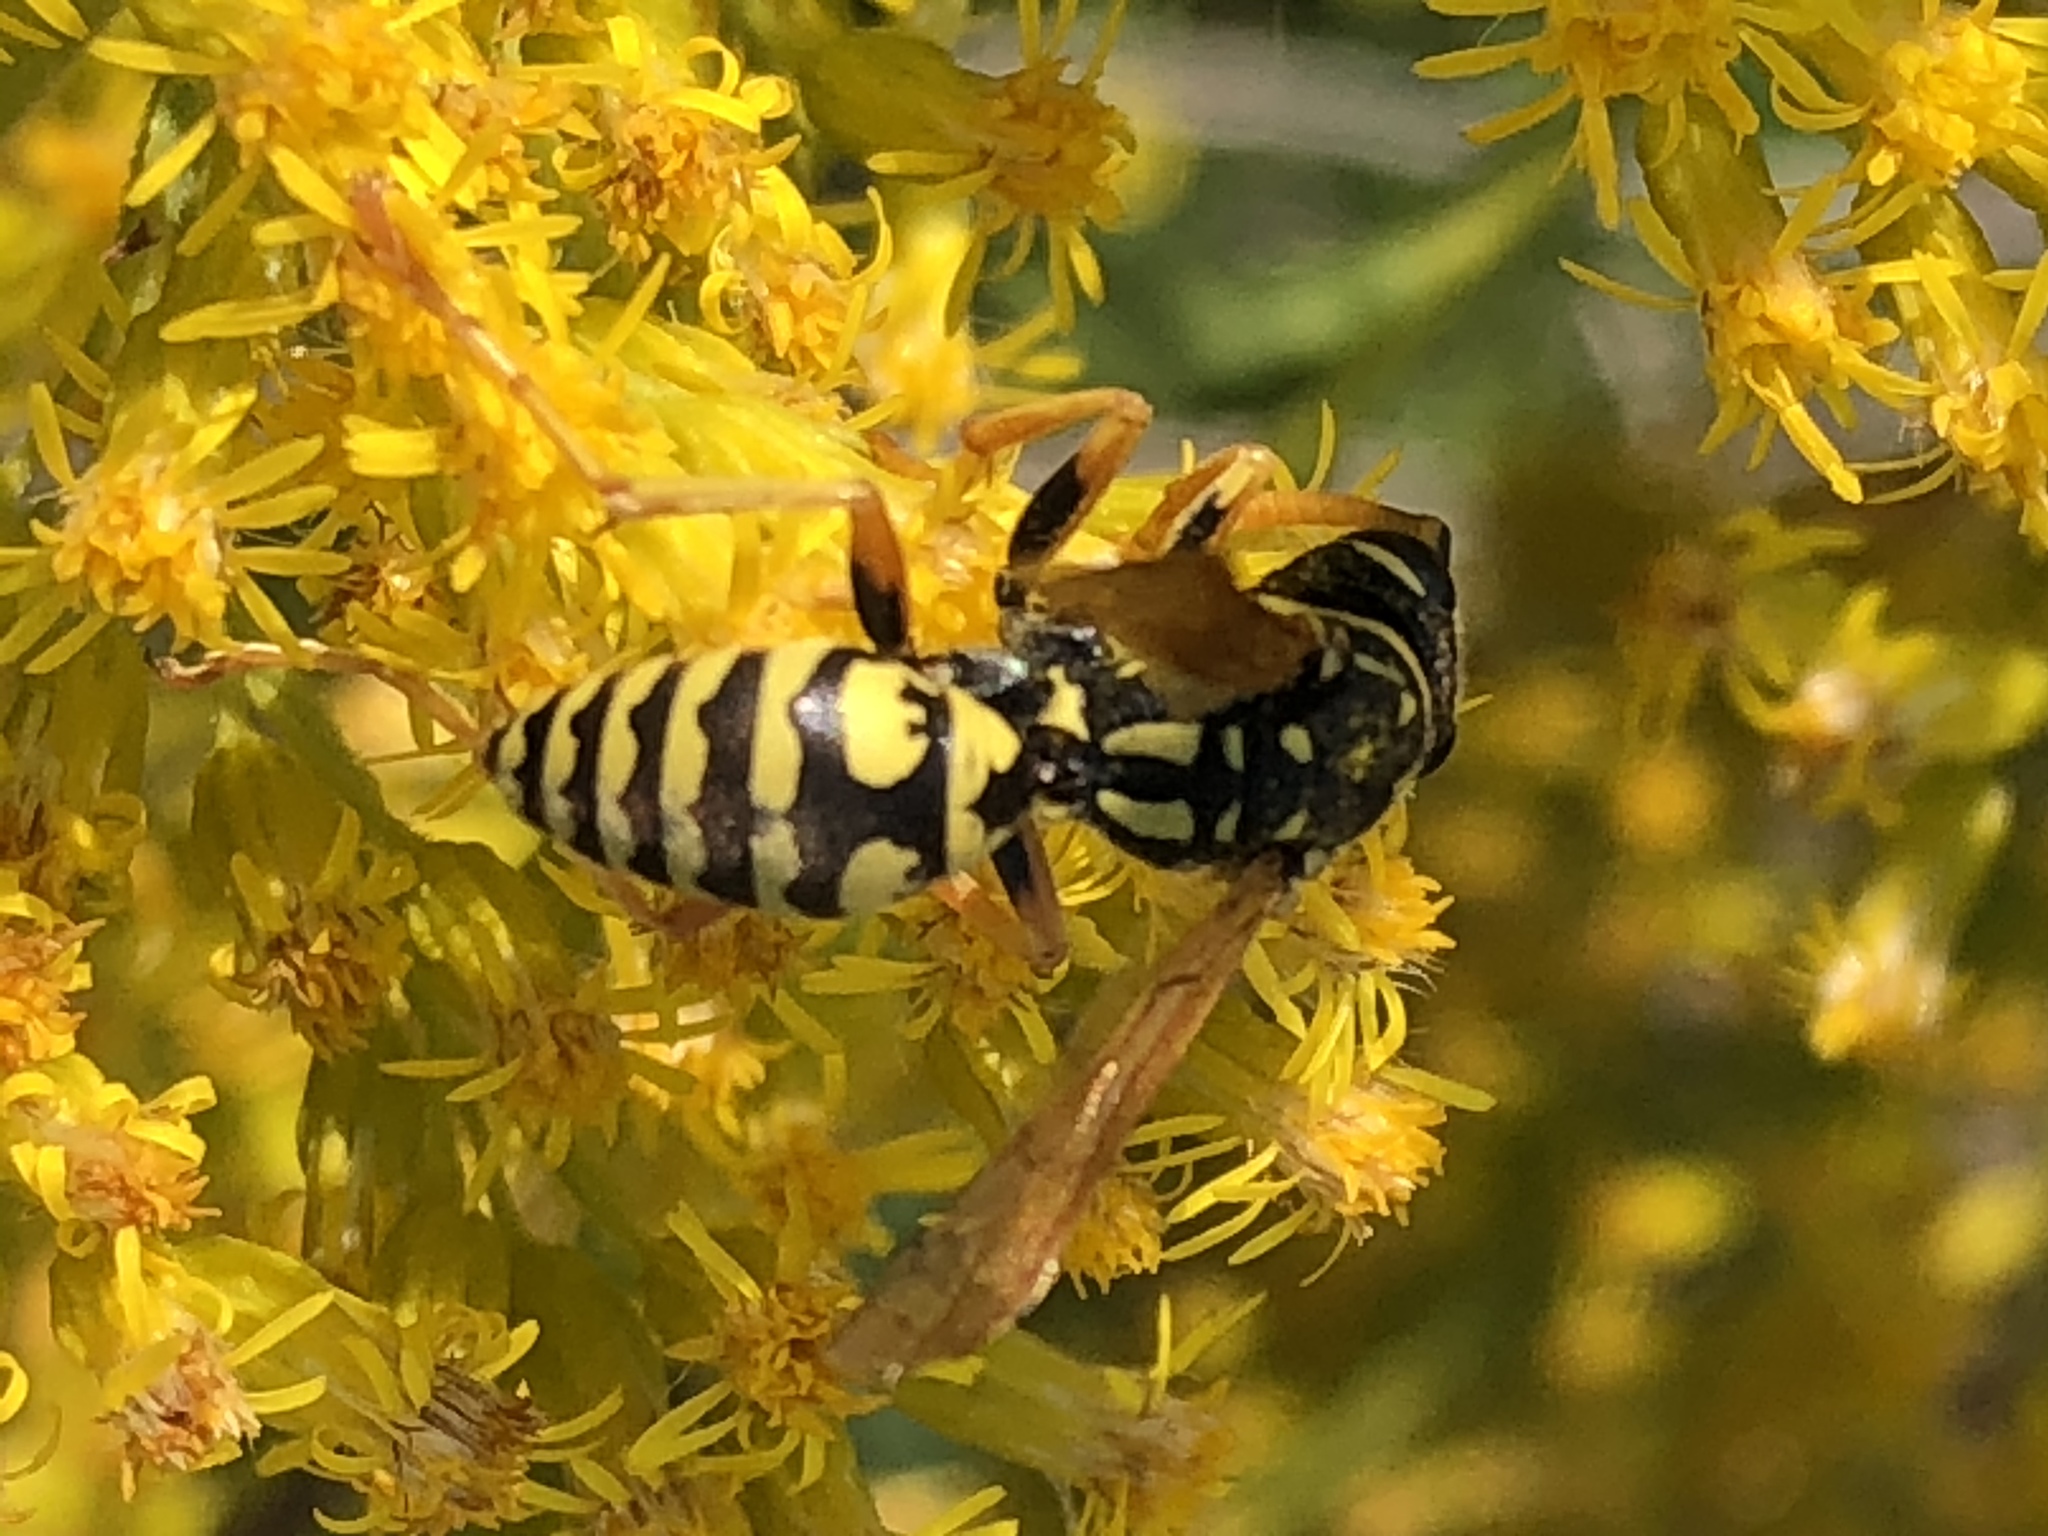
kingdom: Animalia
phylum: Arthropoda
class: Insecta
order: Hymenoptera
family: Eumenidae
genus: Polistes
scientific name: Polistes dominula
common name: Paper wasp
